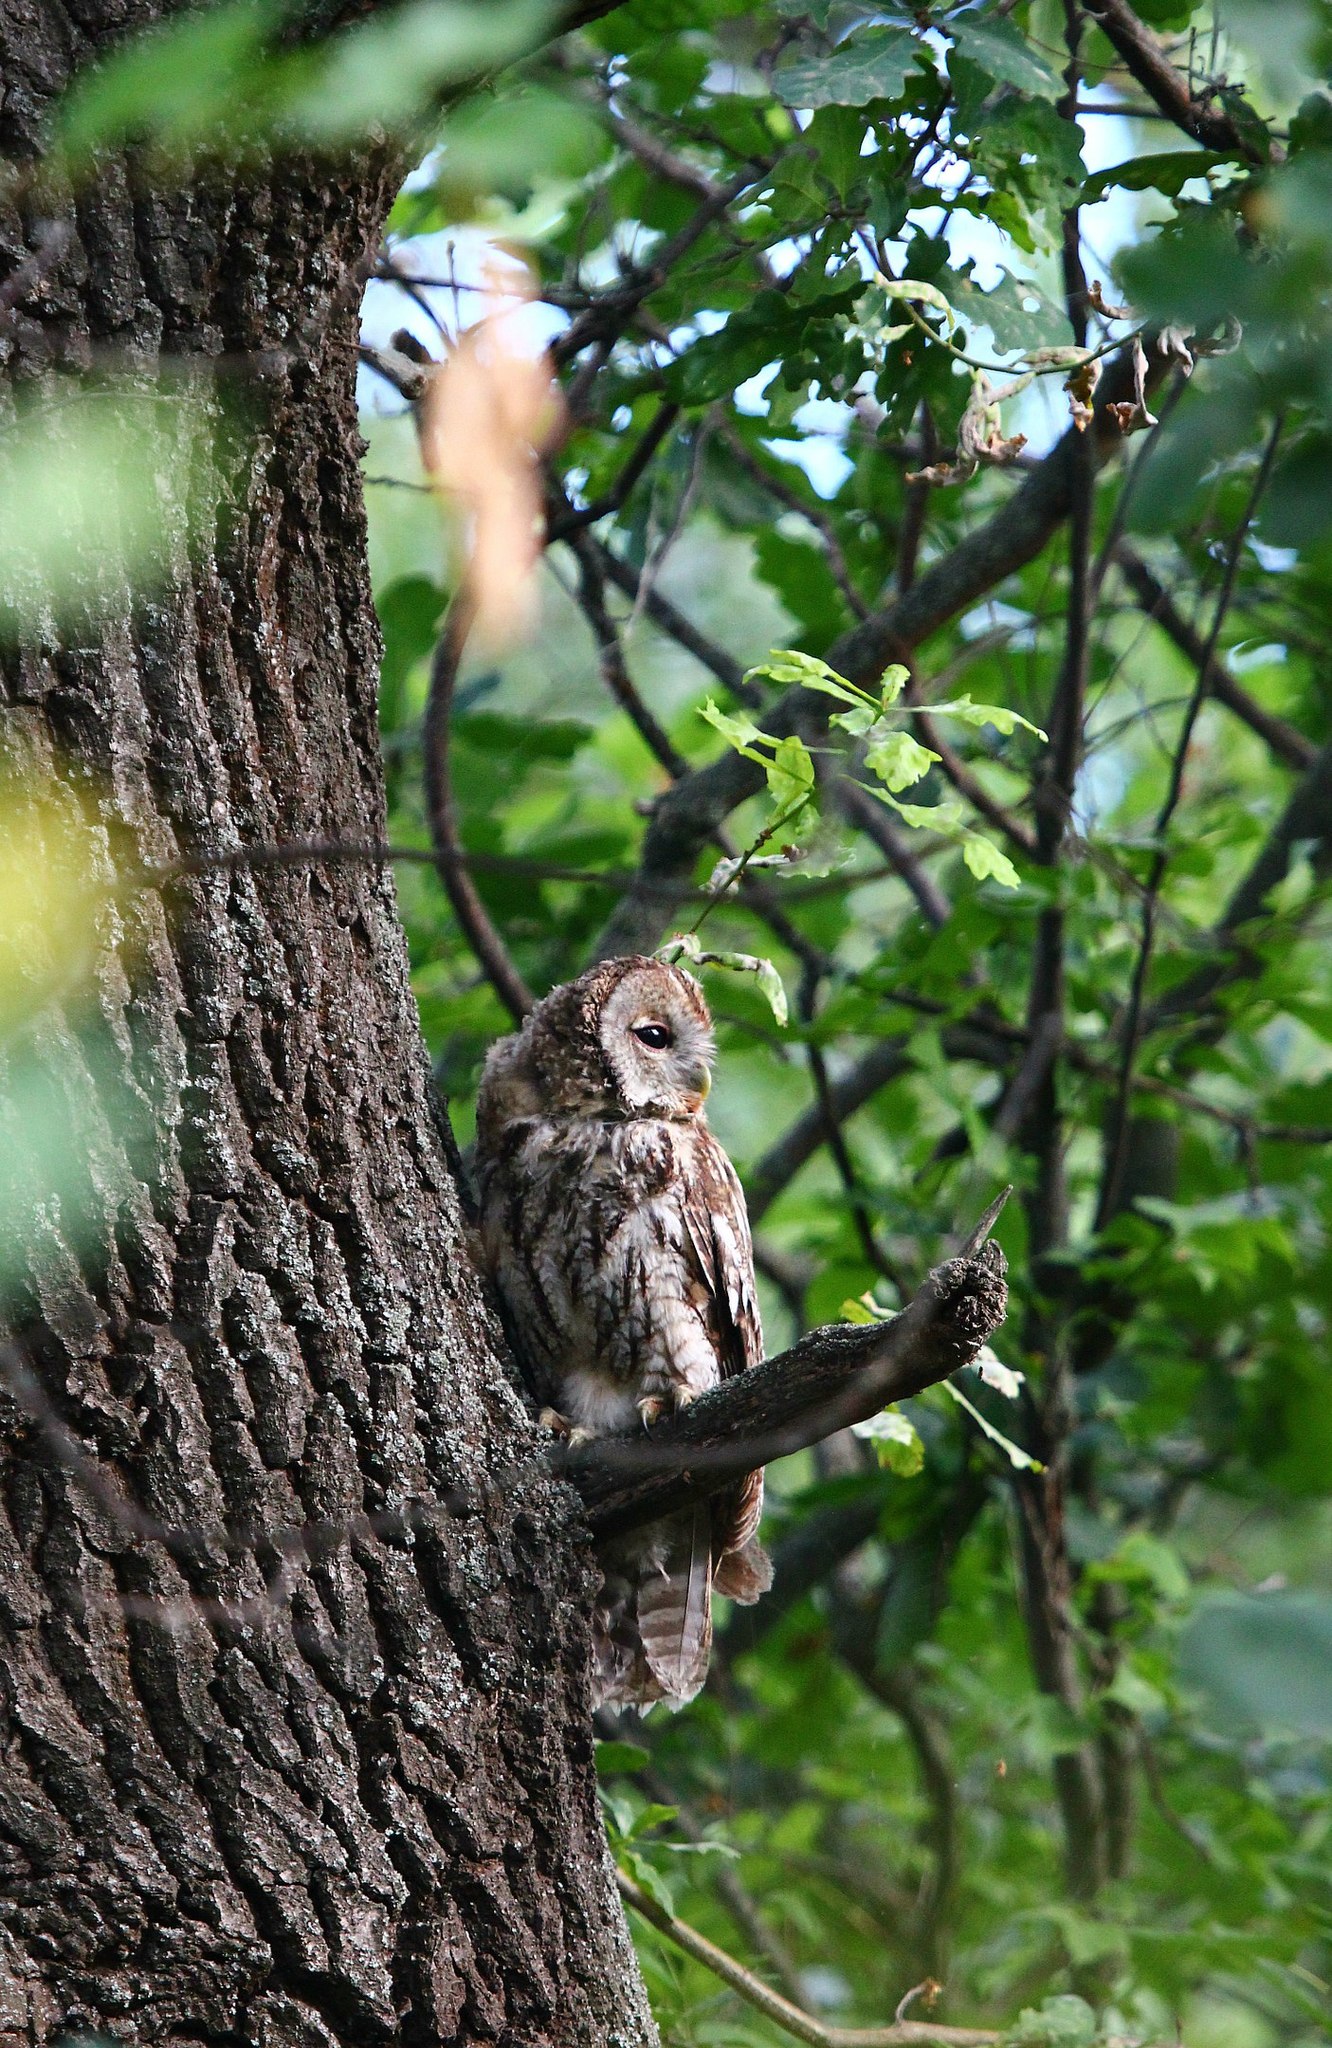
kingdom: Animalia
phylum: Chordata
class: Aves
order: Strigiformes
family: Strigidae
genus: Strix
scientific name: Strix aluco
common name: Tawny owl
